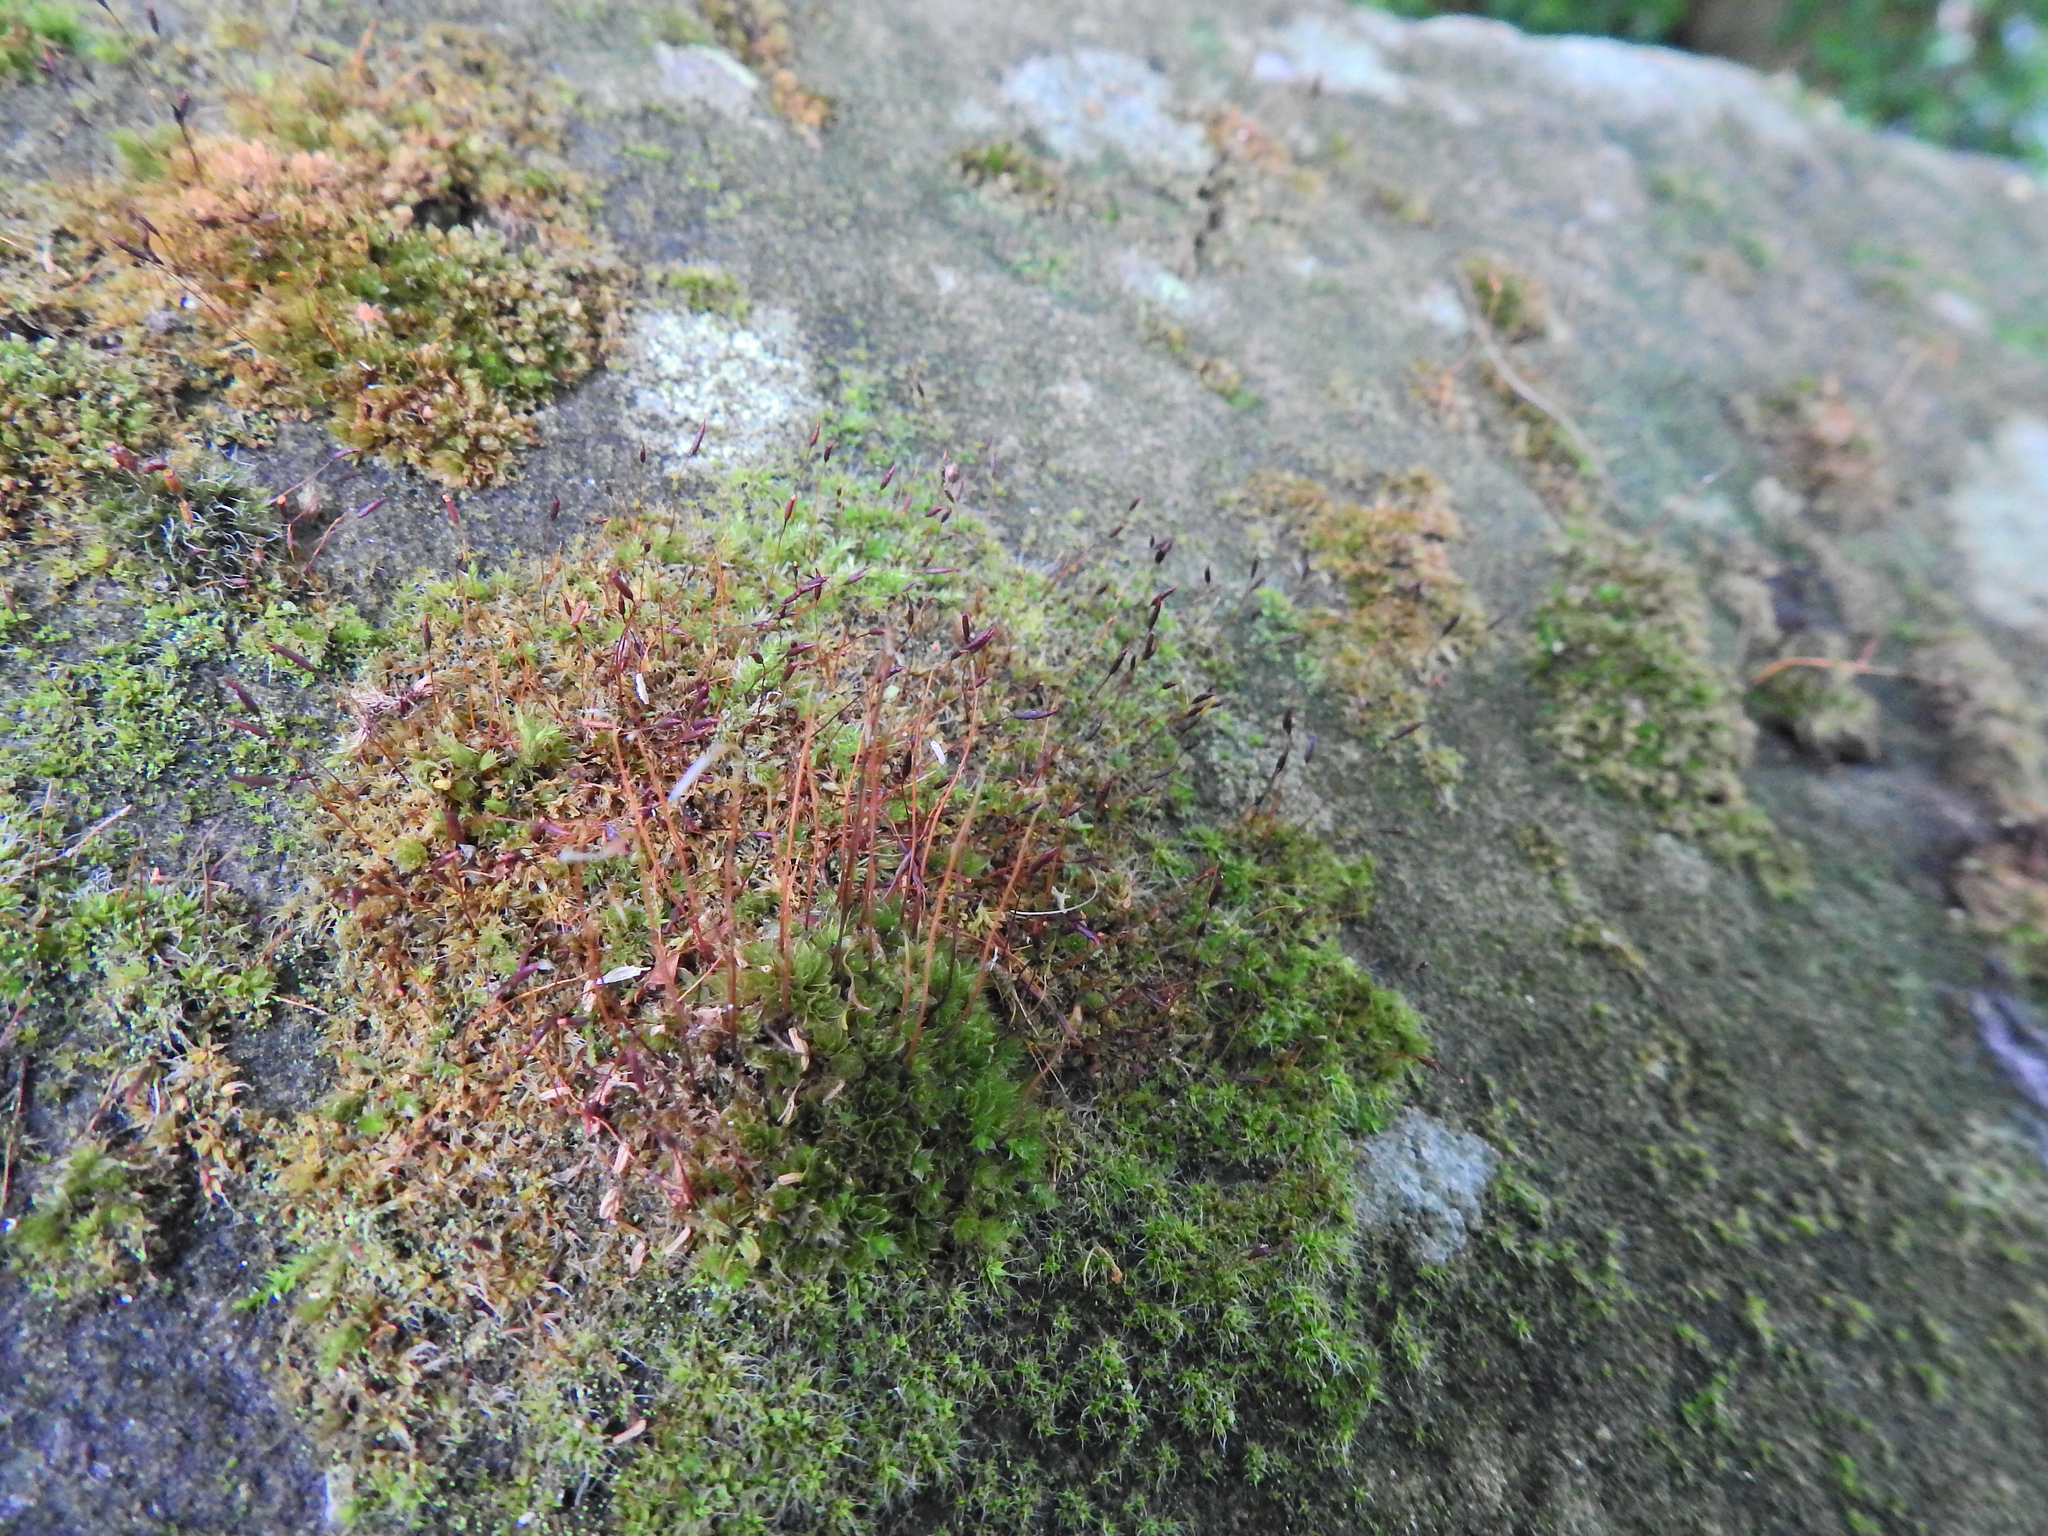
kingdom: Plantae
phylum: Bryophyta
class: Bryopsida
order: Pottiales
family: Pottiaceae
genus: Tortula
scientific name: Tortula muralis
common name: Wall screw-moss
